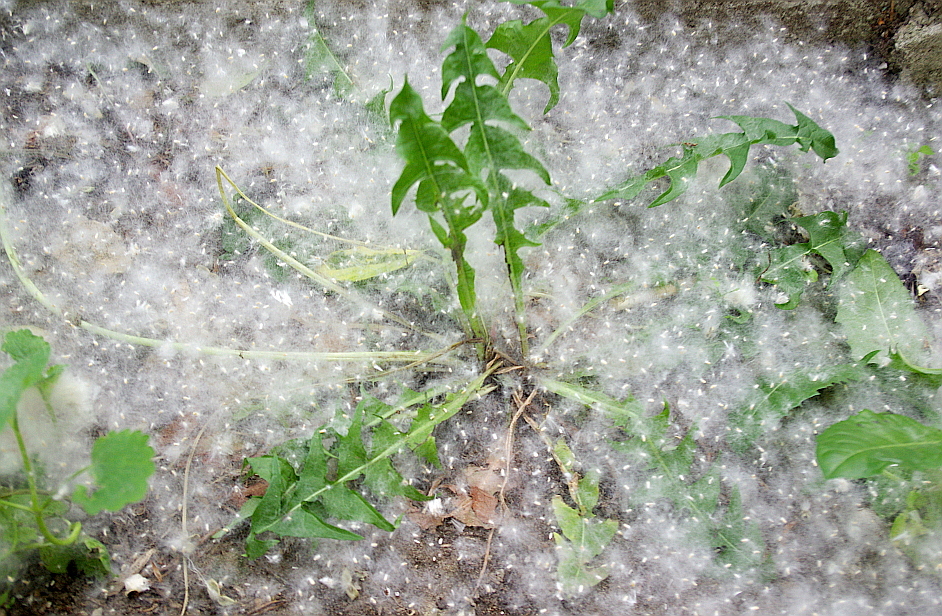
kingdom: Plantae
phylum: Tracheophyta
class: Magnoliopsida
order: Asterales
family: Asteraceae
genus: Taraxacum
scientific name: Taraxacum officinale
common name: Common dandelion
